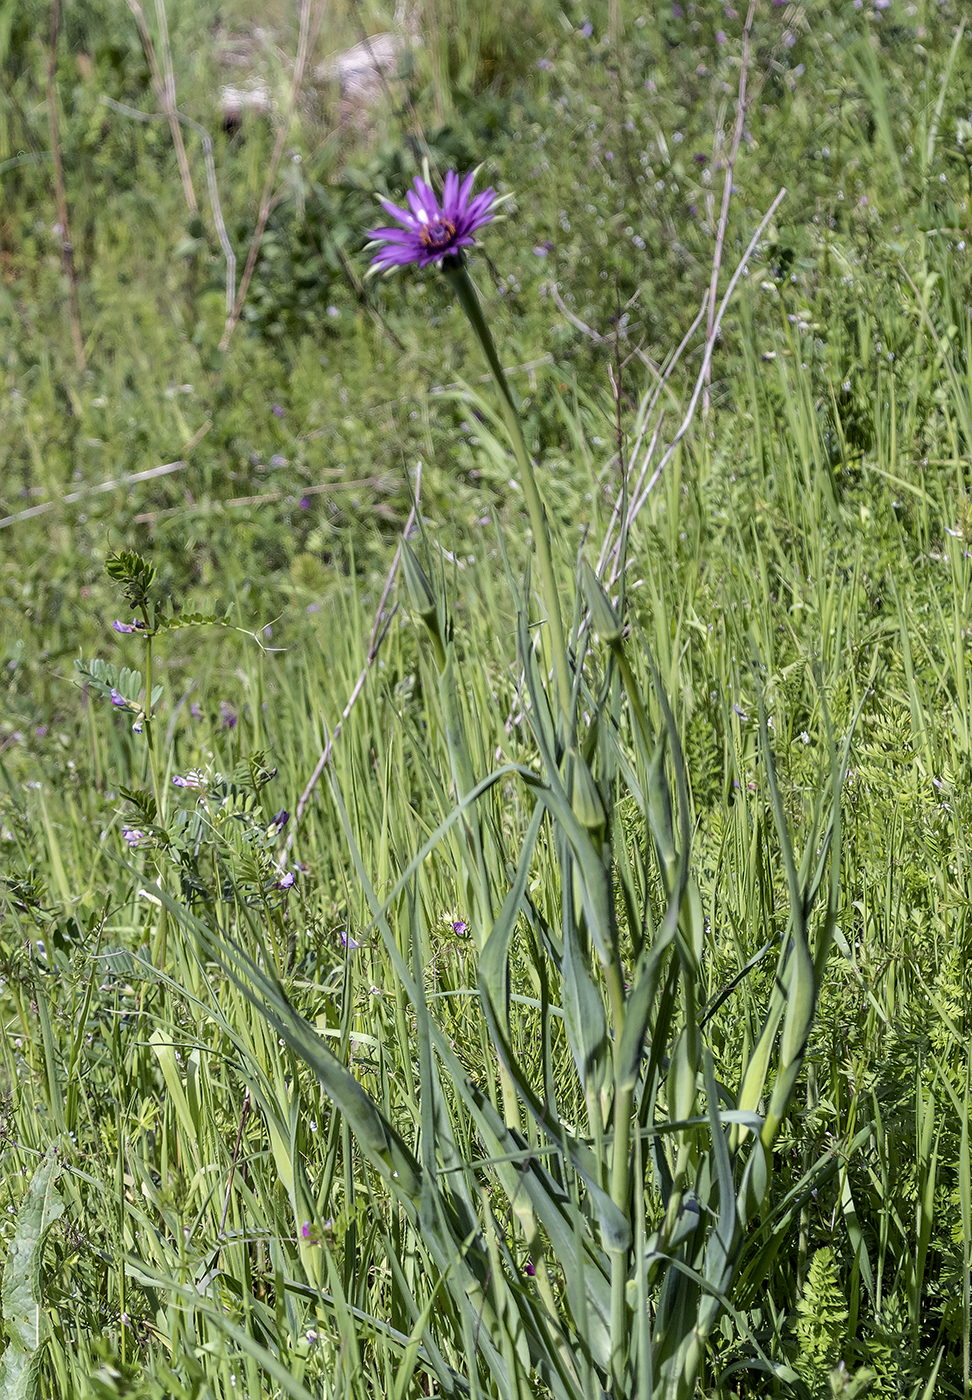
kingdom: Plantae
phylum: Tracheophyta
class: Magnoliopsida
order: Asterales
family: Asteraceae
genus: Tragopogon
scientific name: Tragopogon porrifolius
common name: Salsify
